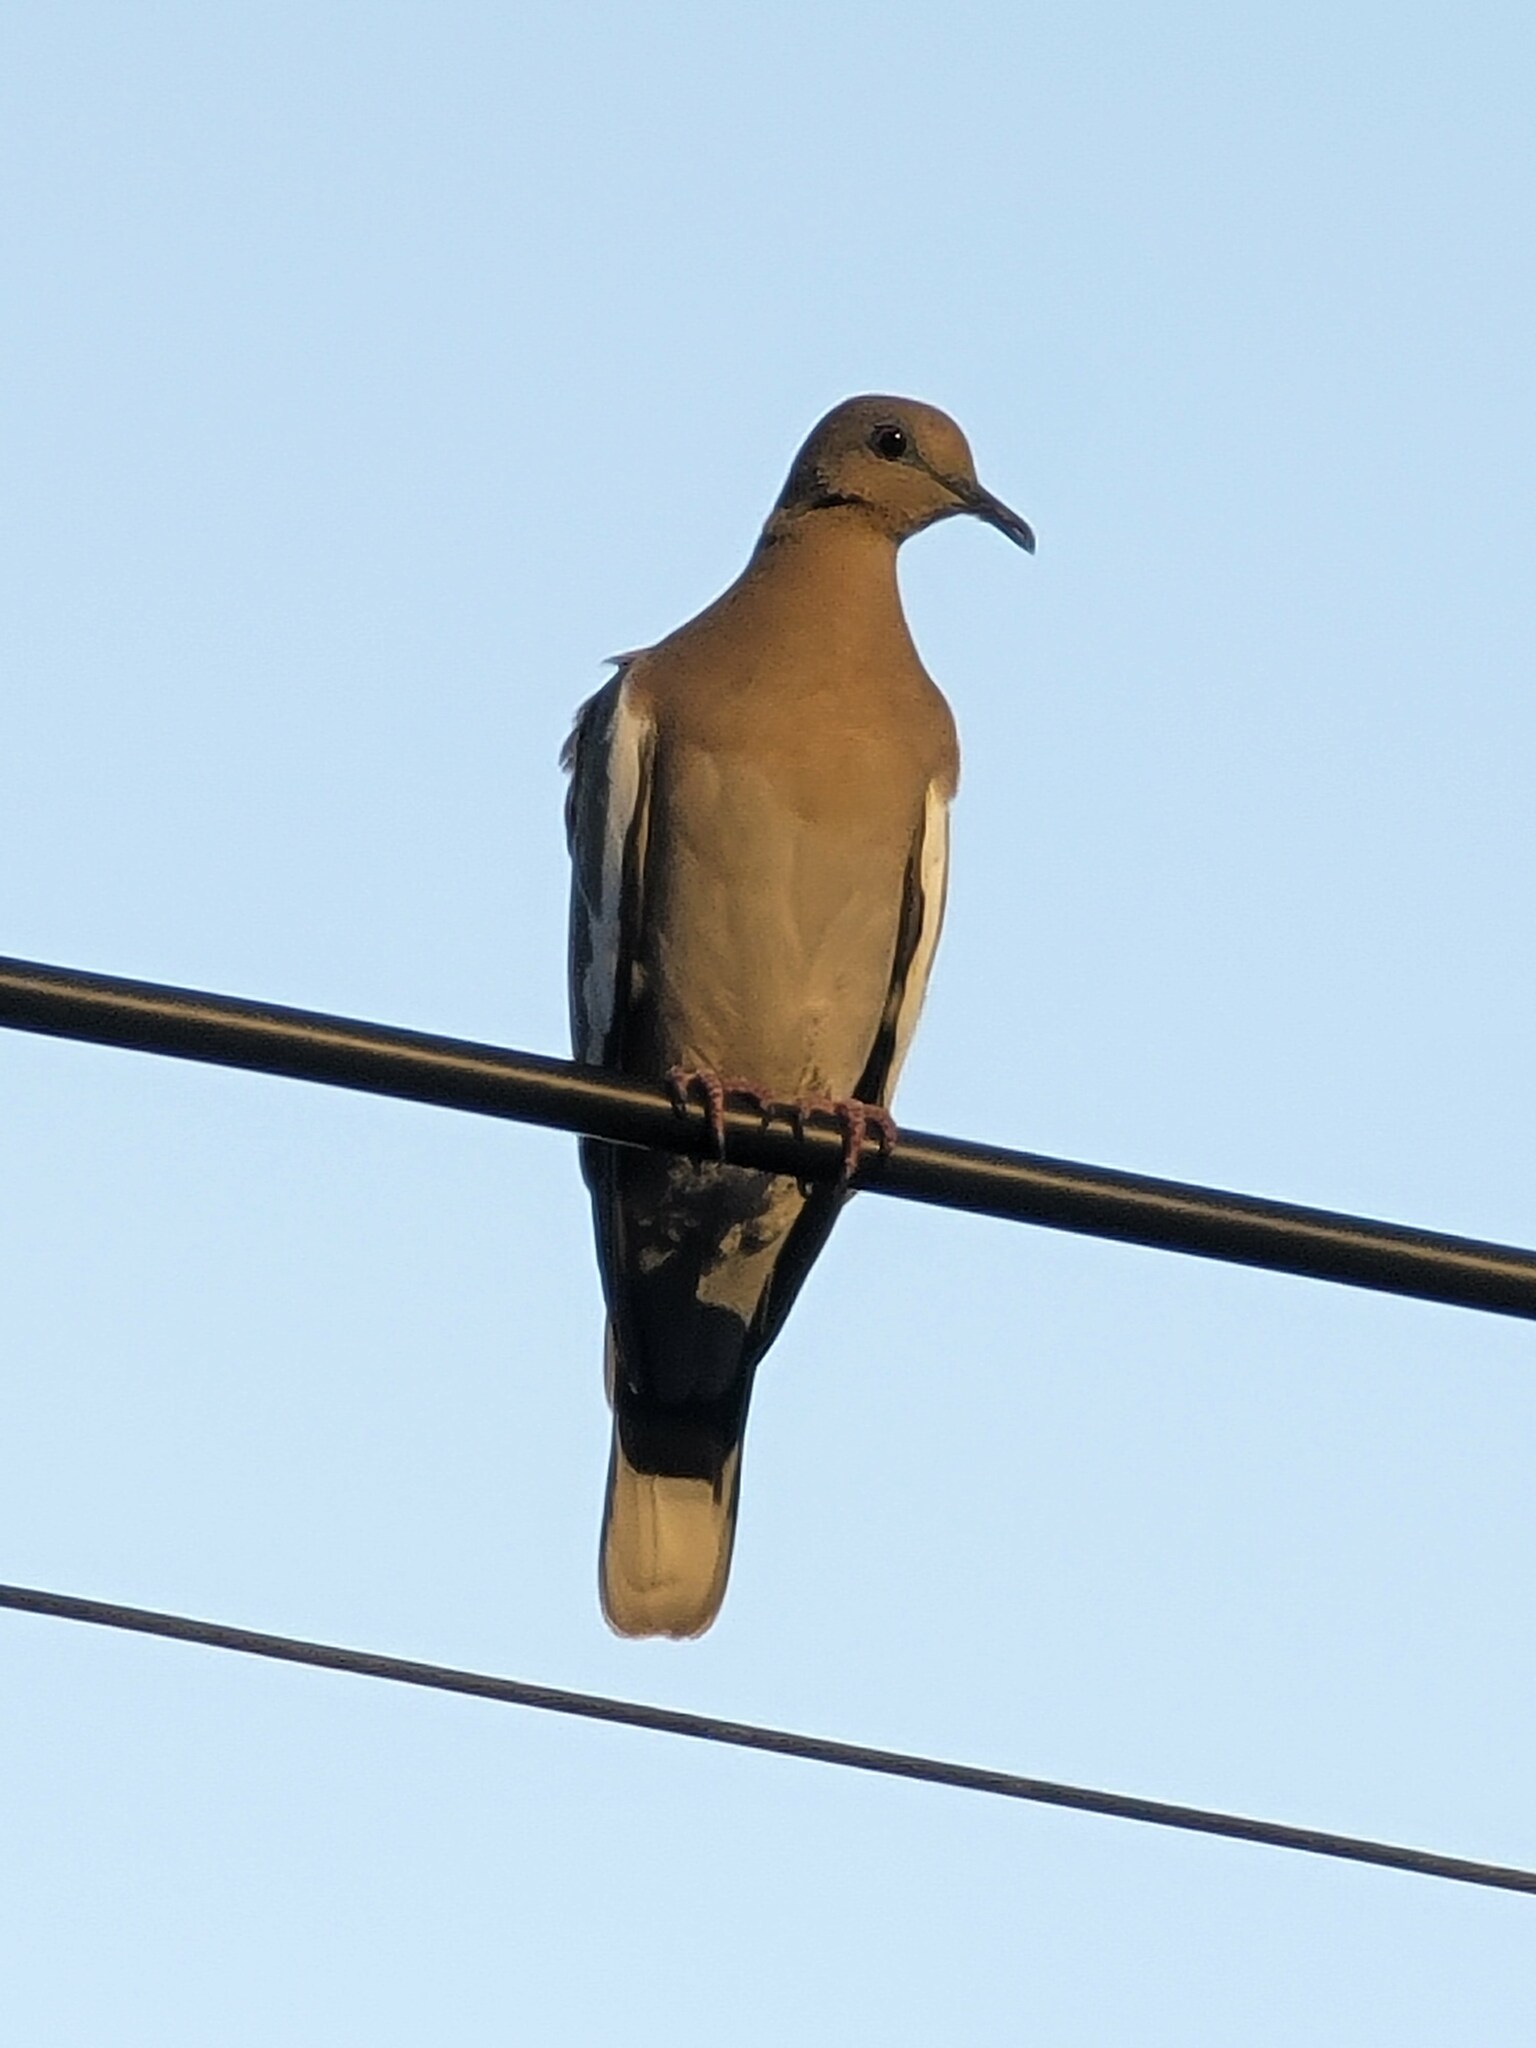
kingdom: Animalia
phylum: Chordata
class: Aves
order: Columbiformes
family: Columbidae
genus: Zenaida
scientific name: Zenaida asiatica
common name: White-winged dove
